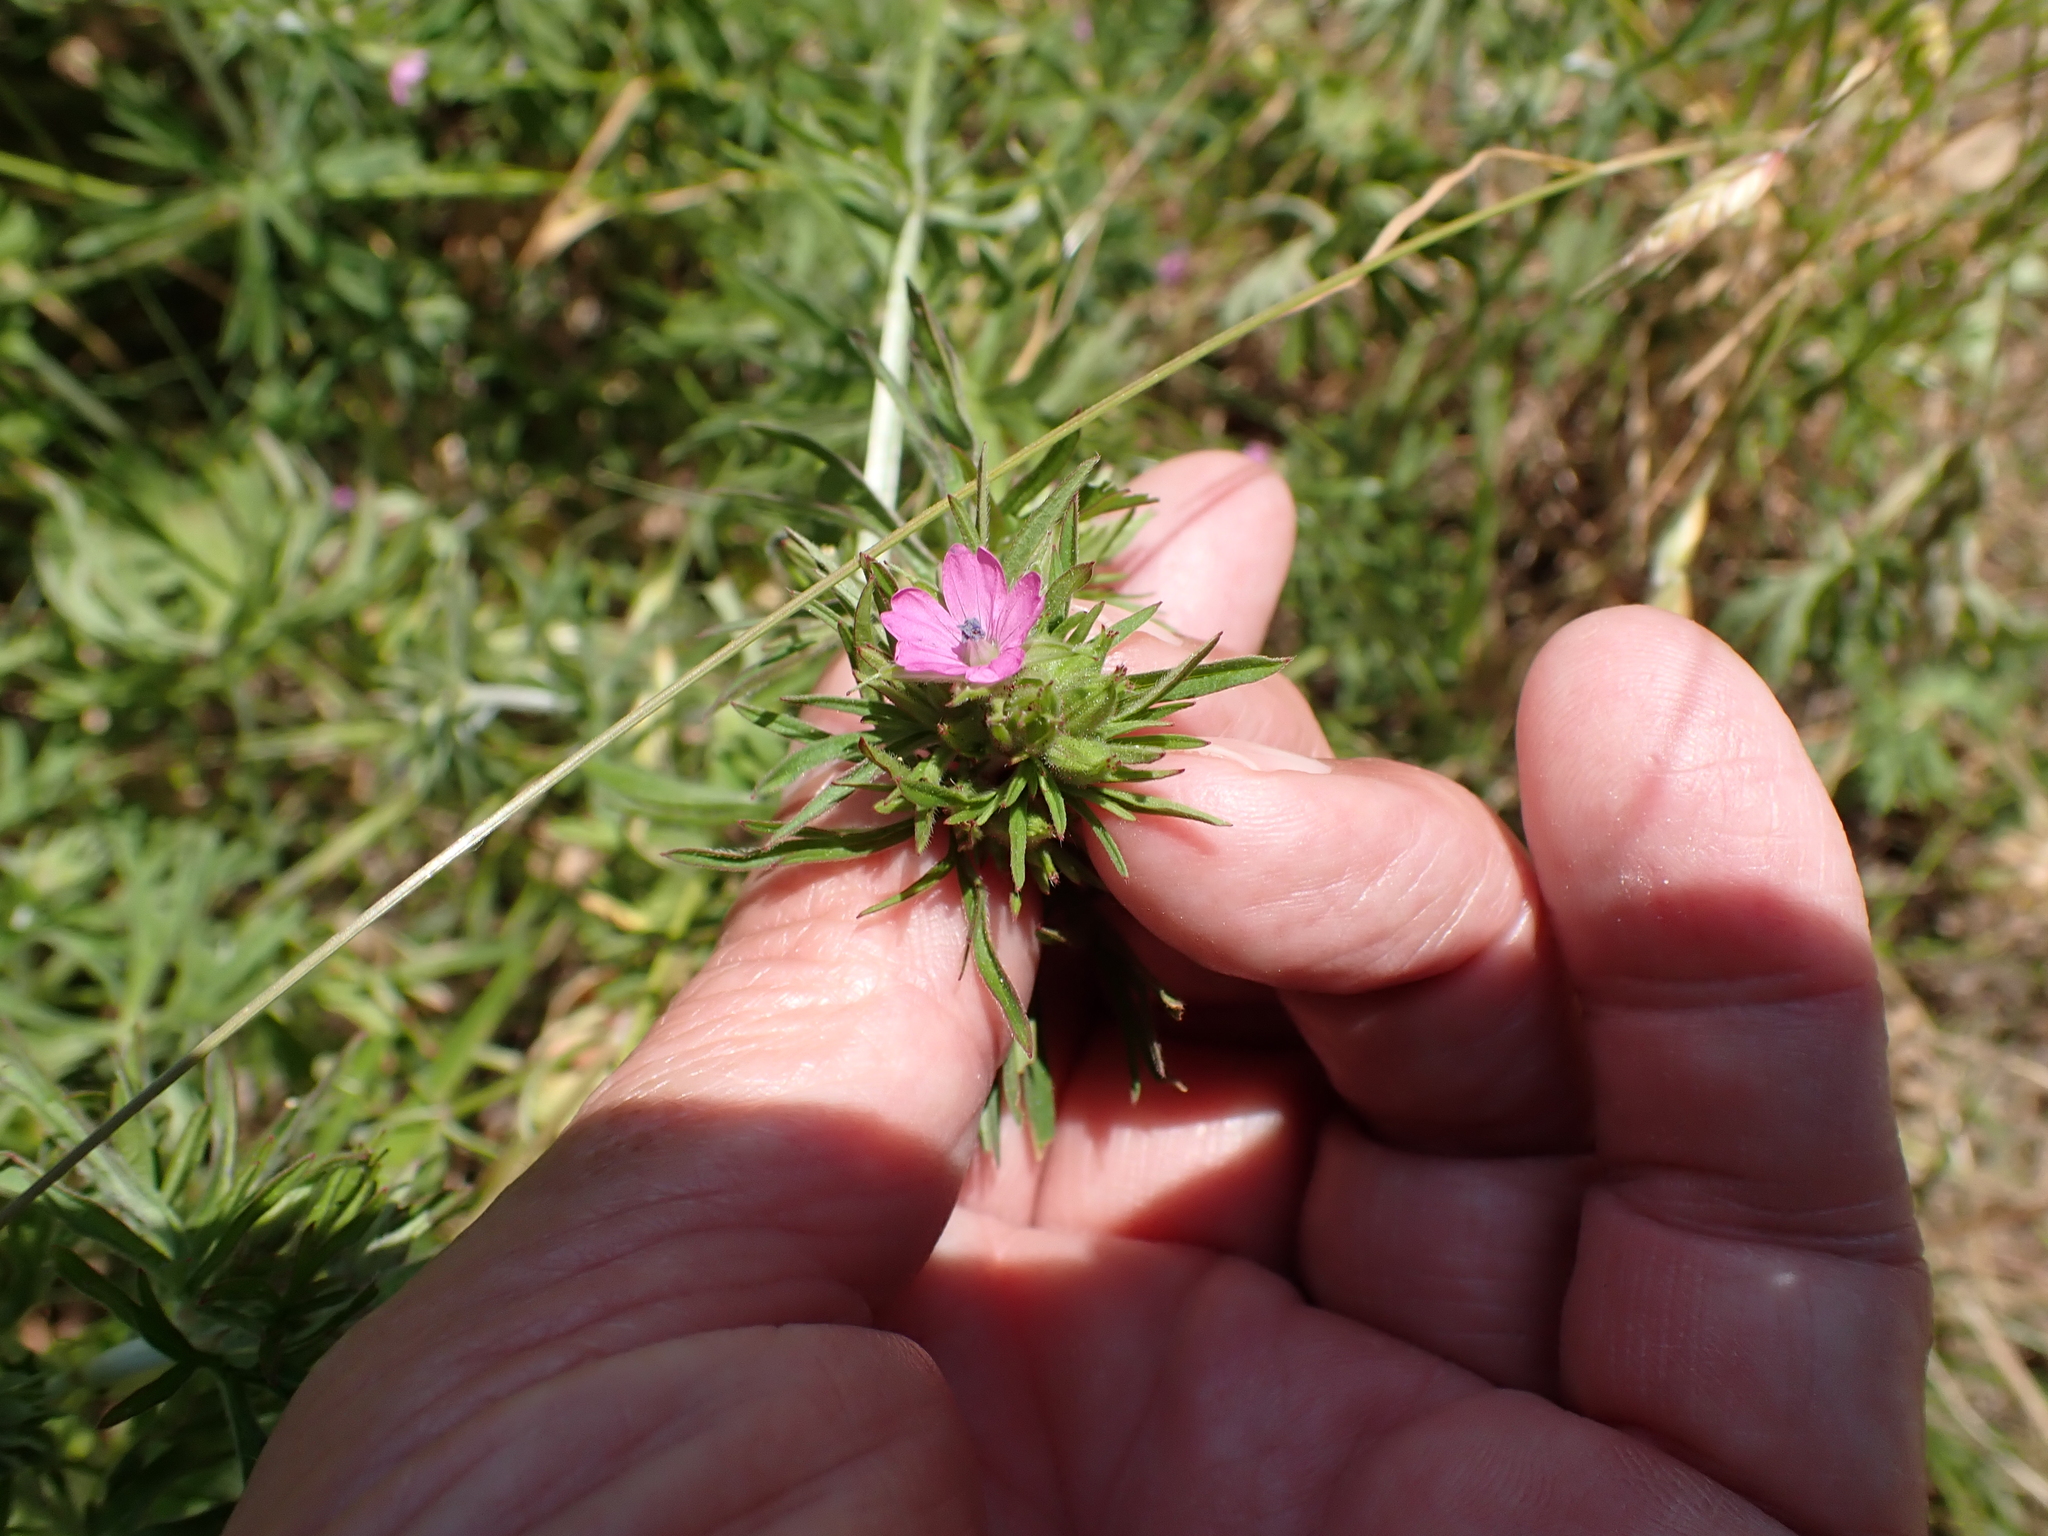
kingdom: Plantae
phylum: Tracheophyta
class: Magnoliopsida
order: Geraniales
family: Geraniaceae
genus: Geranium
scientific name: Geranium dissectum
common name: Cut-leaved crane's-bill
